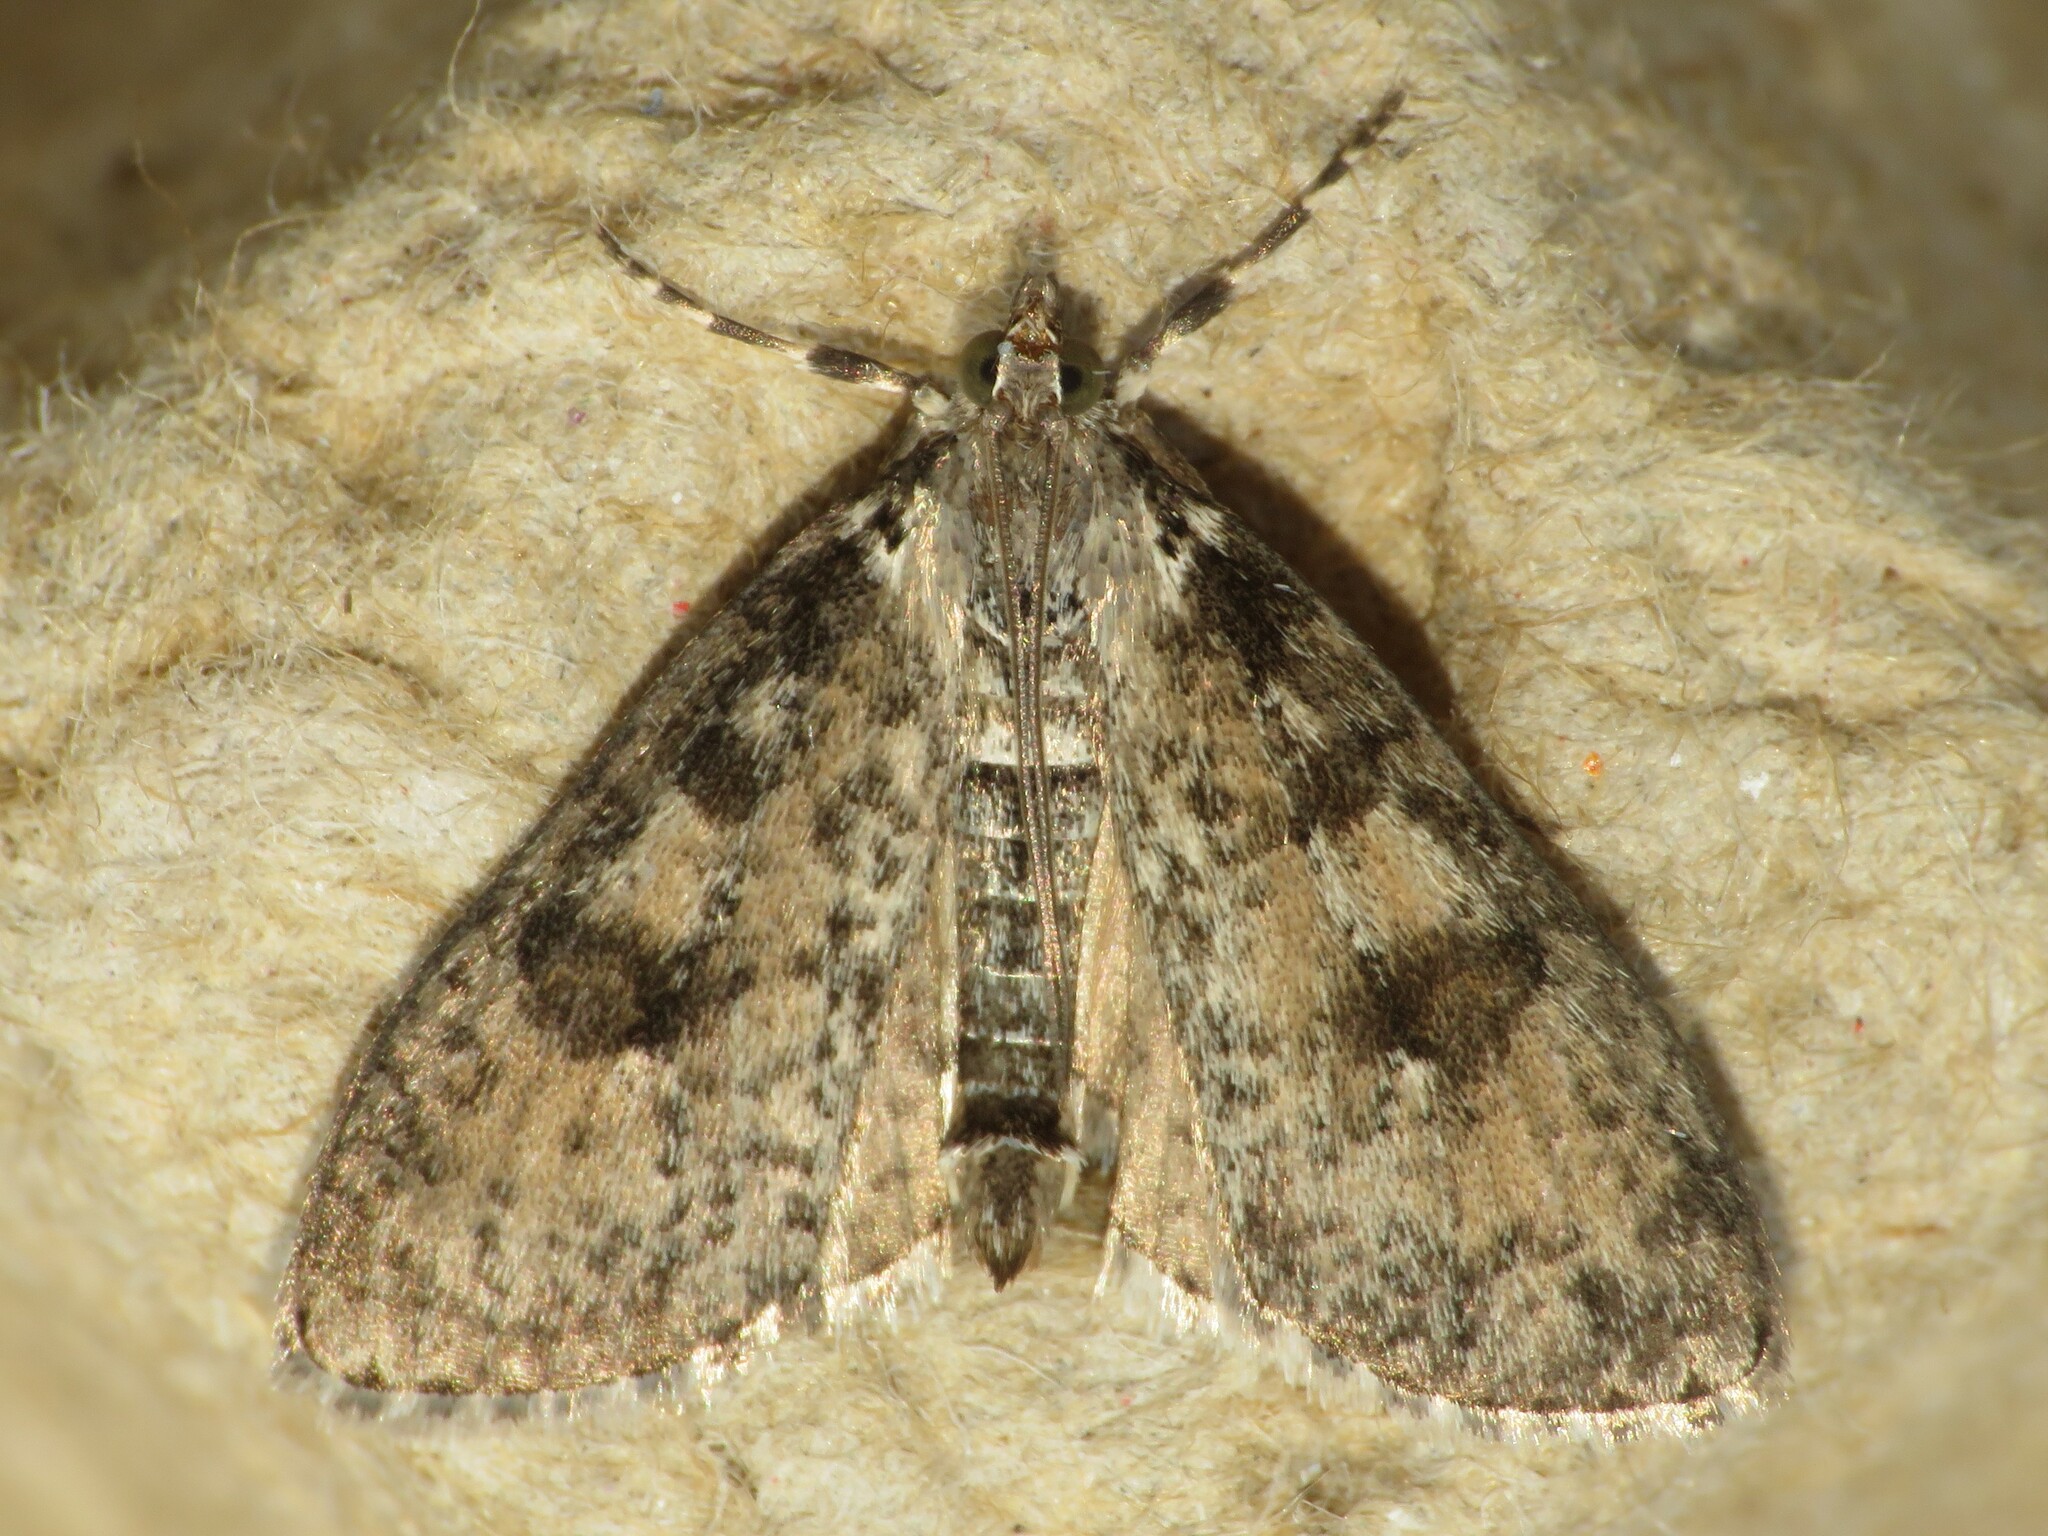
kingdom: Animalia
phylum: Arthropoda
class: Insecta
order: Lepidoptera
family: Crambidae
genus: Palpita
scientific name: Palpita aenescentalis
